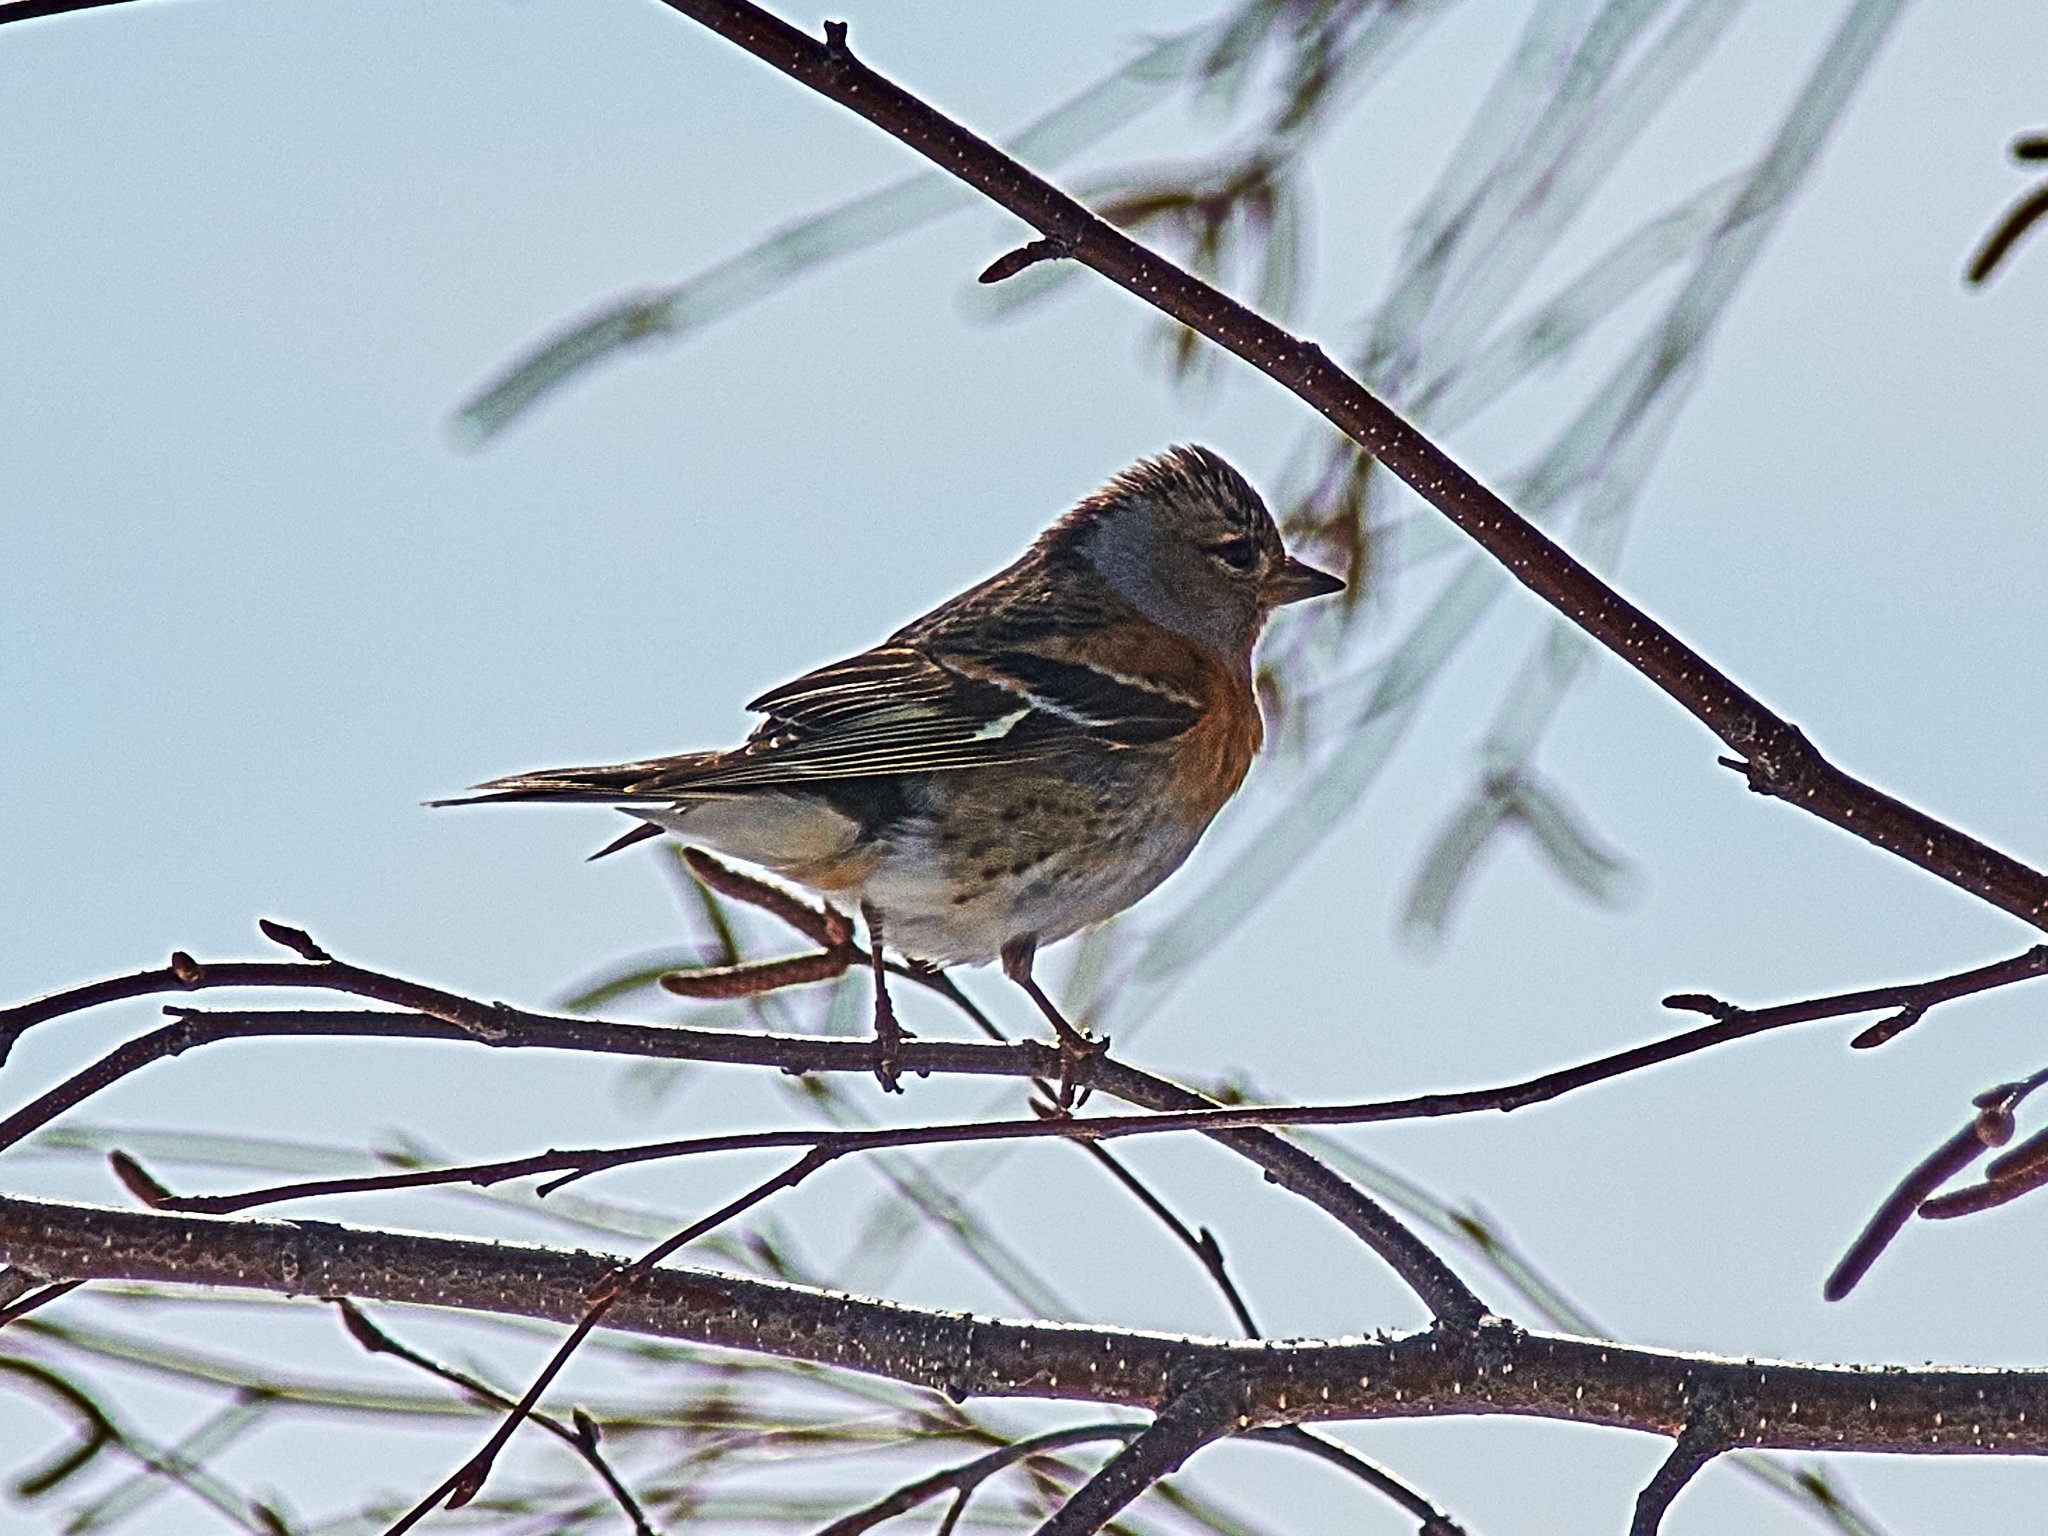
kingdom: Animalia
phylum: Chordata
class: Aves
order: Passeriformes
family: Fringillidae
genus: Fringilla
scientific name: Fringilla coelebs
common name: Common chaffinch
